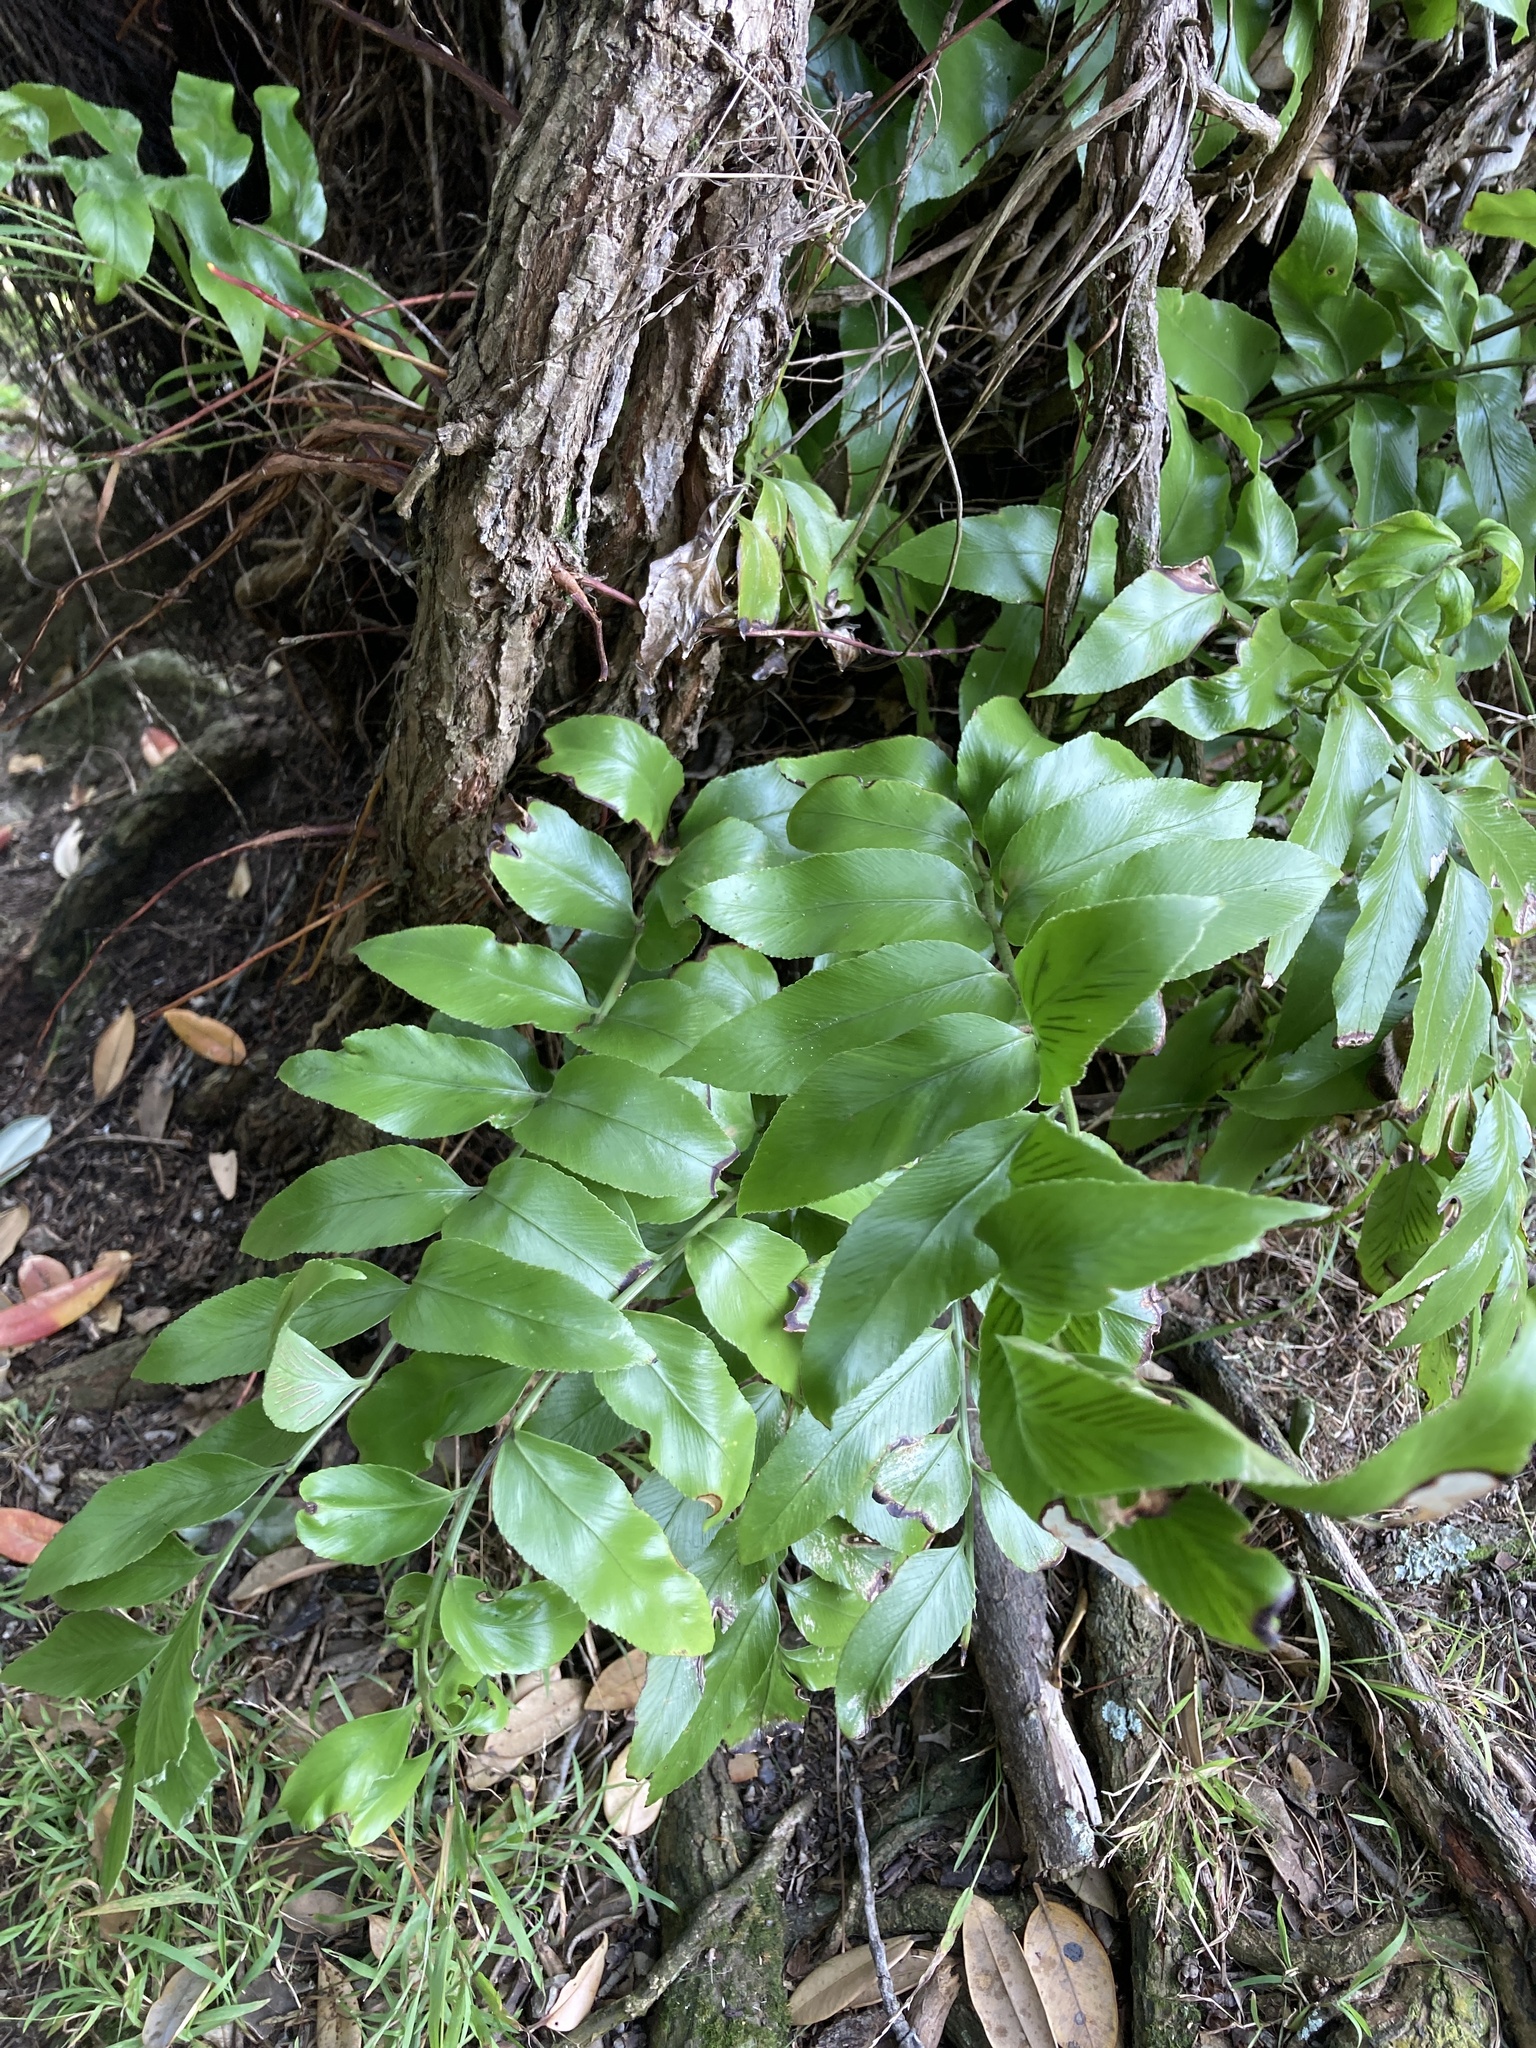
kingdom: Plantae
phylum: Tracheophyta
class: Polypodiopsida
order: Polypodiales
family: Aspleniaceae
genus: Asplenium
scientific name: Asplenium oblongifolium
